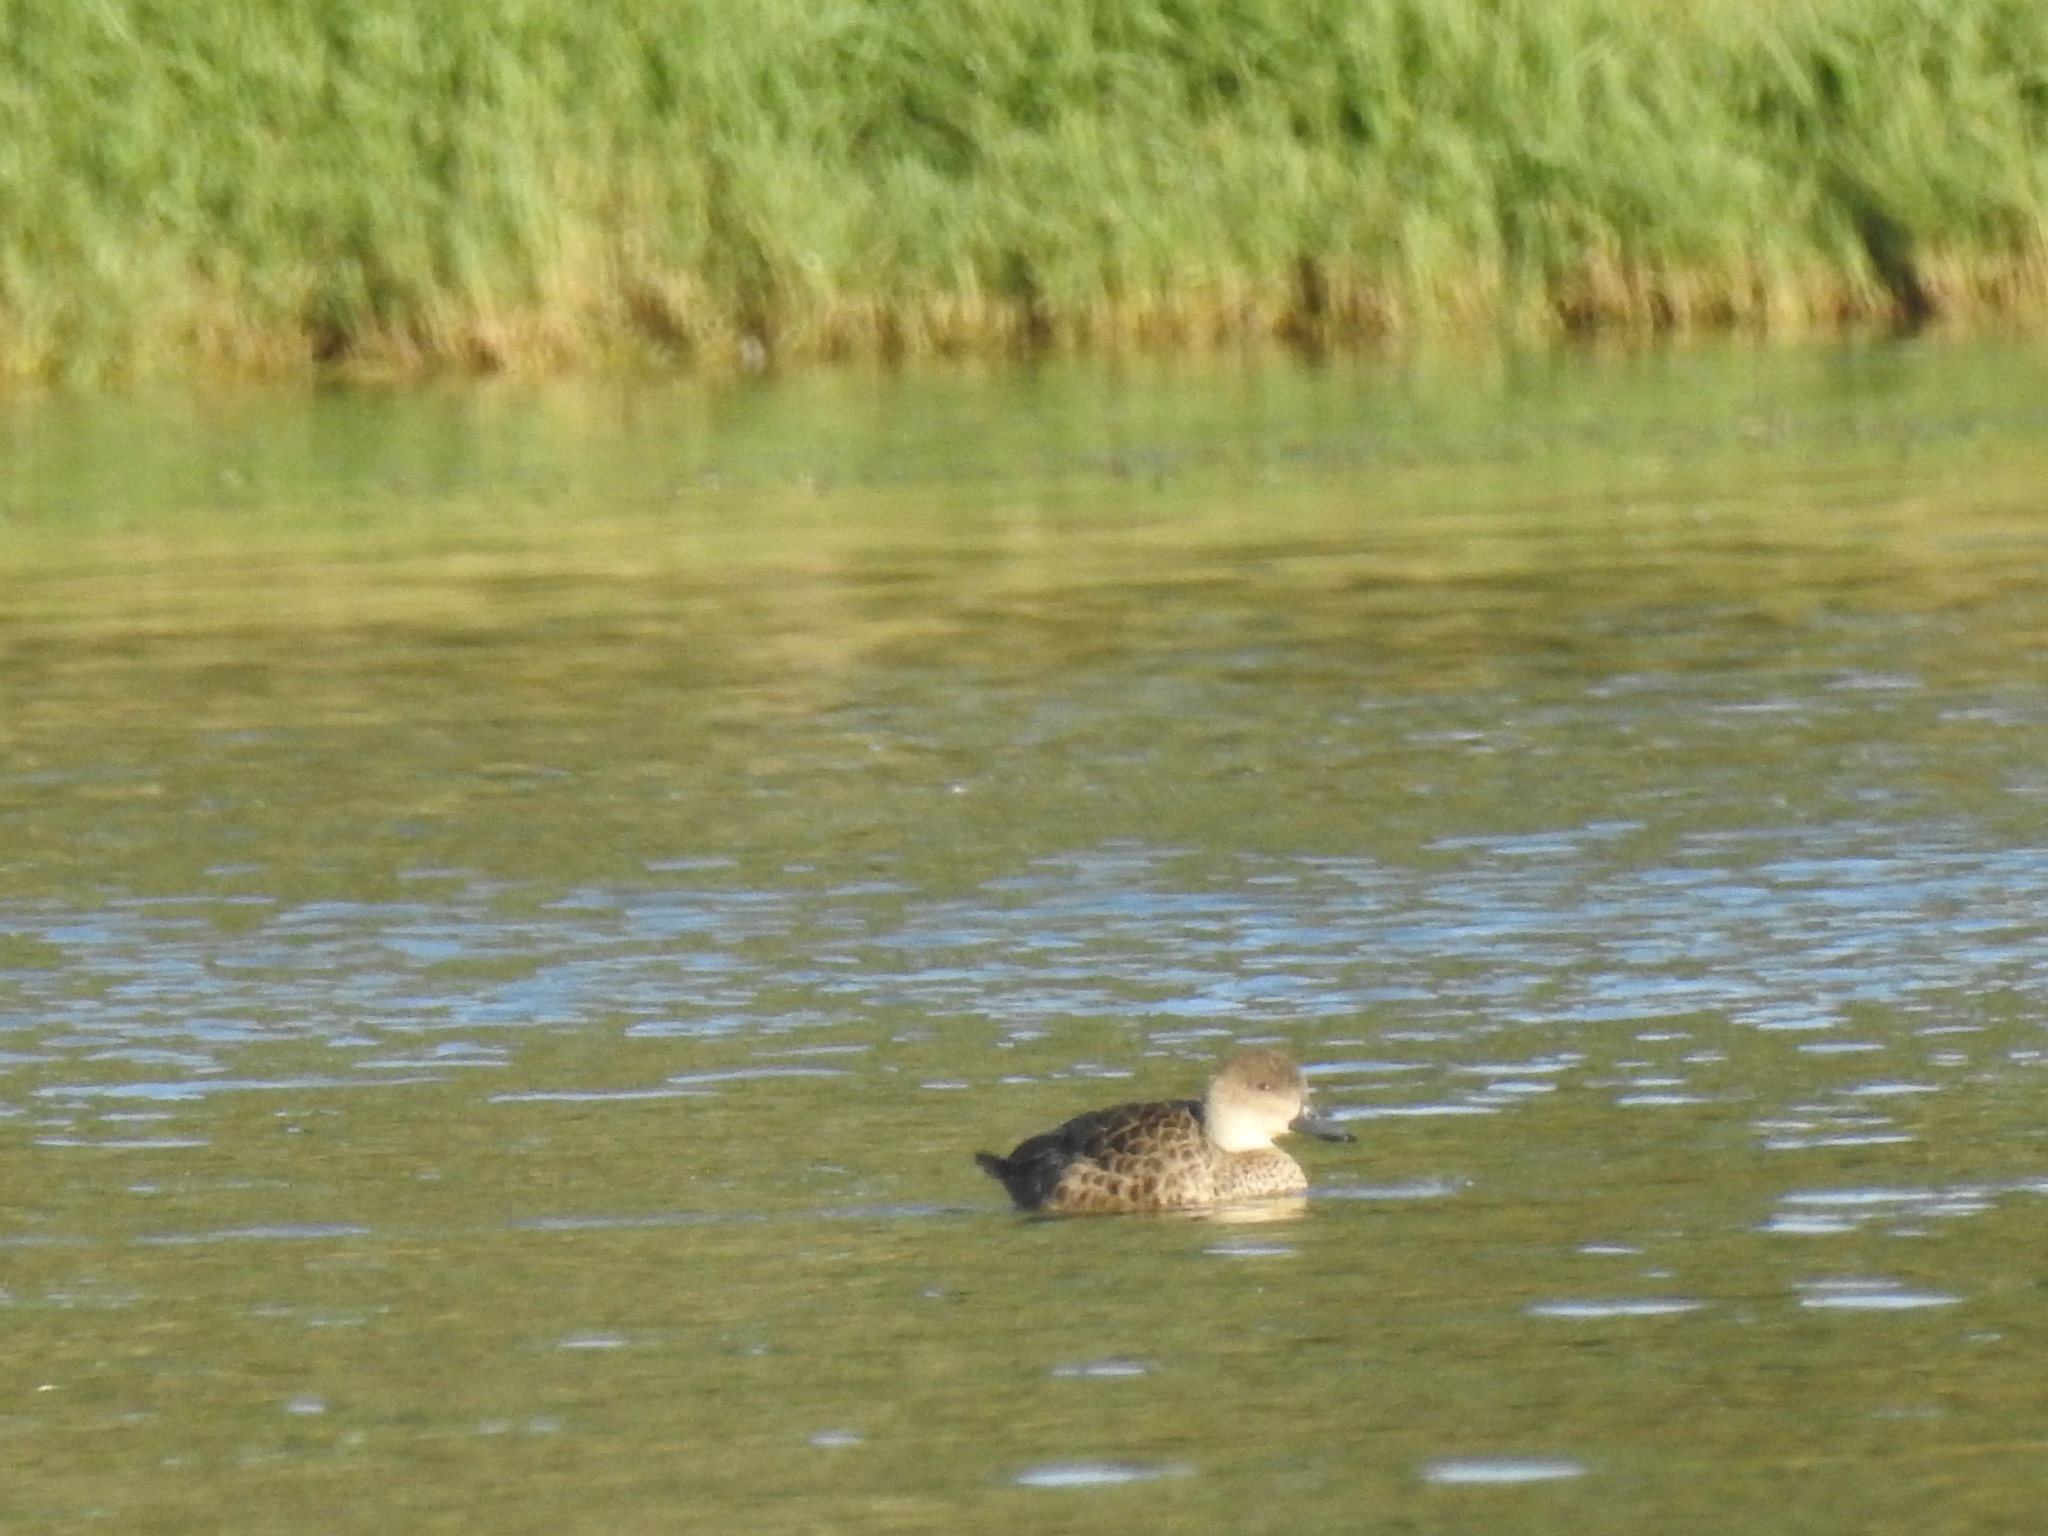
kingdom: Animalia
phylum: Chordata
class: Aves
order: Anseriformes
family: Anatidae
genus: Anas
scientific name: Anas gracilis
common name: Grey teal
